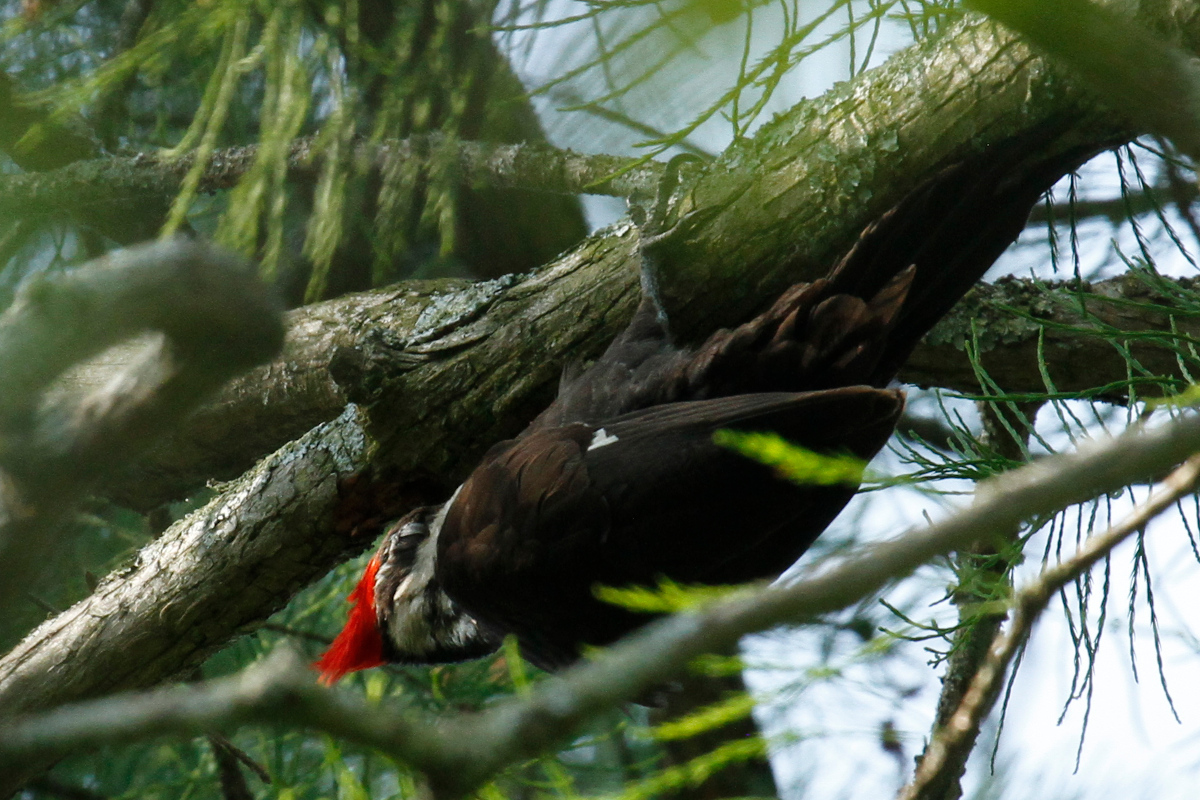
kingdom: Animalia
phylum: Chordata
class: Aves
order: Piciformes
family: Picidae
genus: Dryocopus
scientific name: Dryocopus pileatus
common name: Pileated woodpecker
